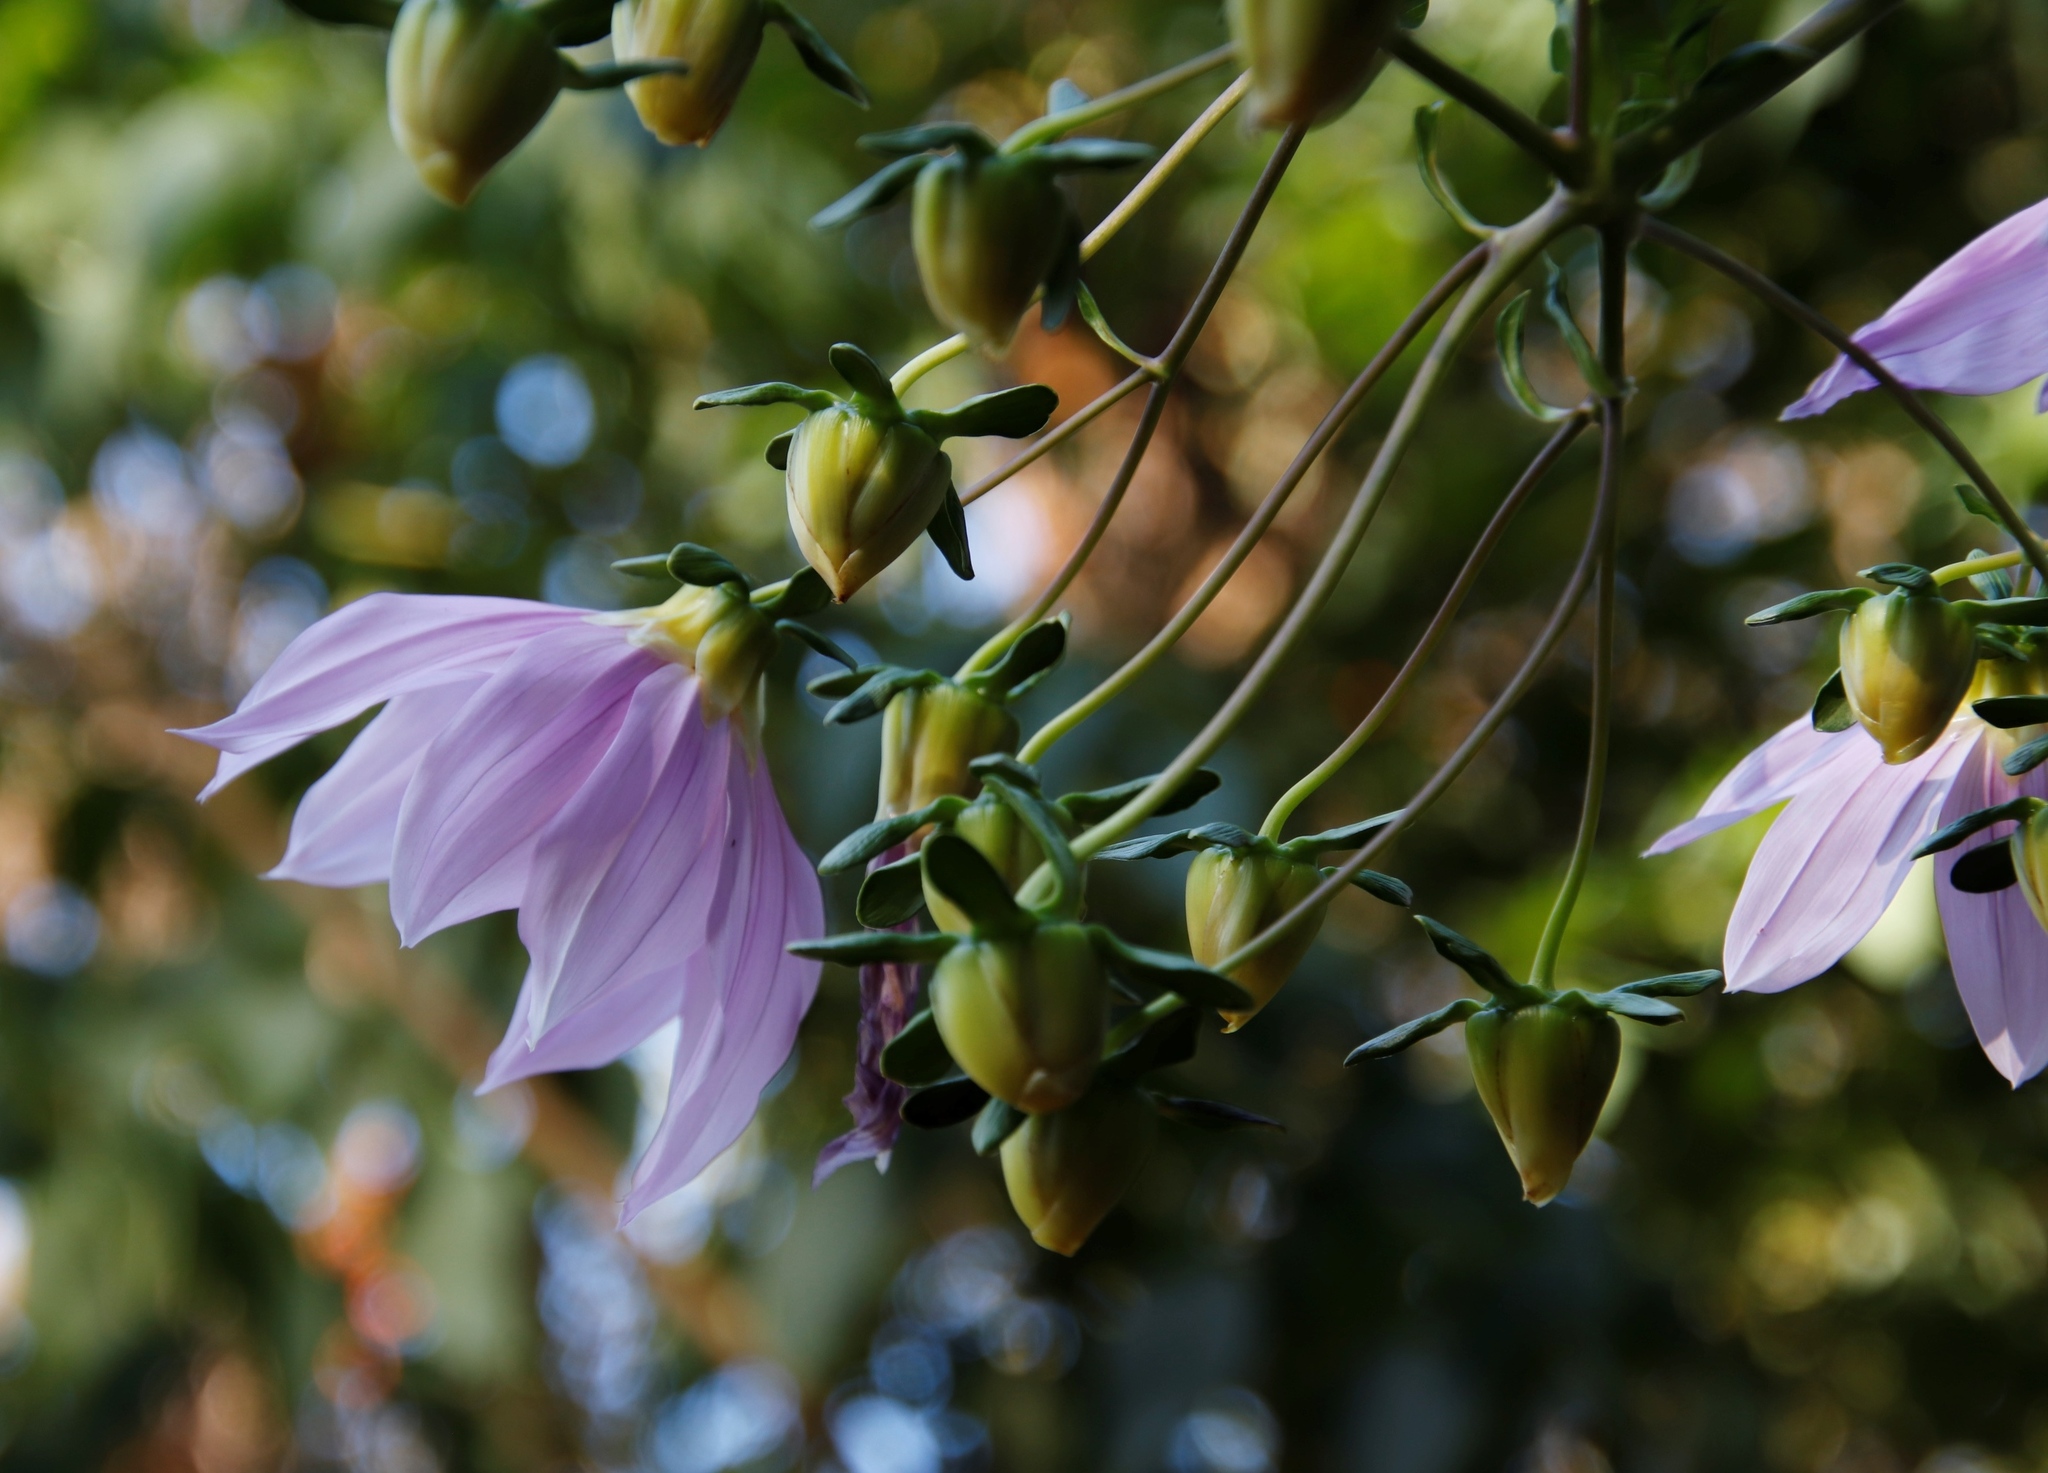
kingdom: Plantae
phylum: Tracheophyta
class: Magnoliopsida
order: Asterales
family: Asteraceae
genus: Dahlia
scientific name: Dahlia imperialis
